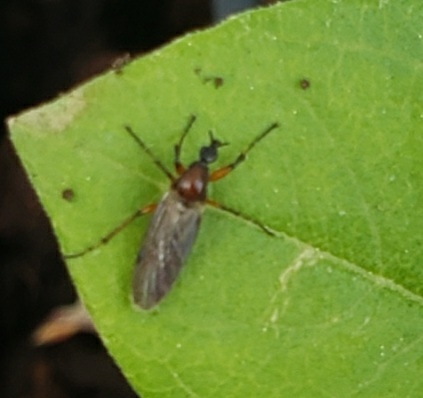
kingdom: Animalia
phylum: Arthropoda
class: Insecta
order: Diptera
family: Bibionidae
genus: Bibio
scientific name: Bibio articulatus
